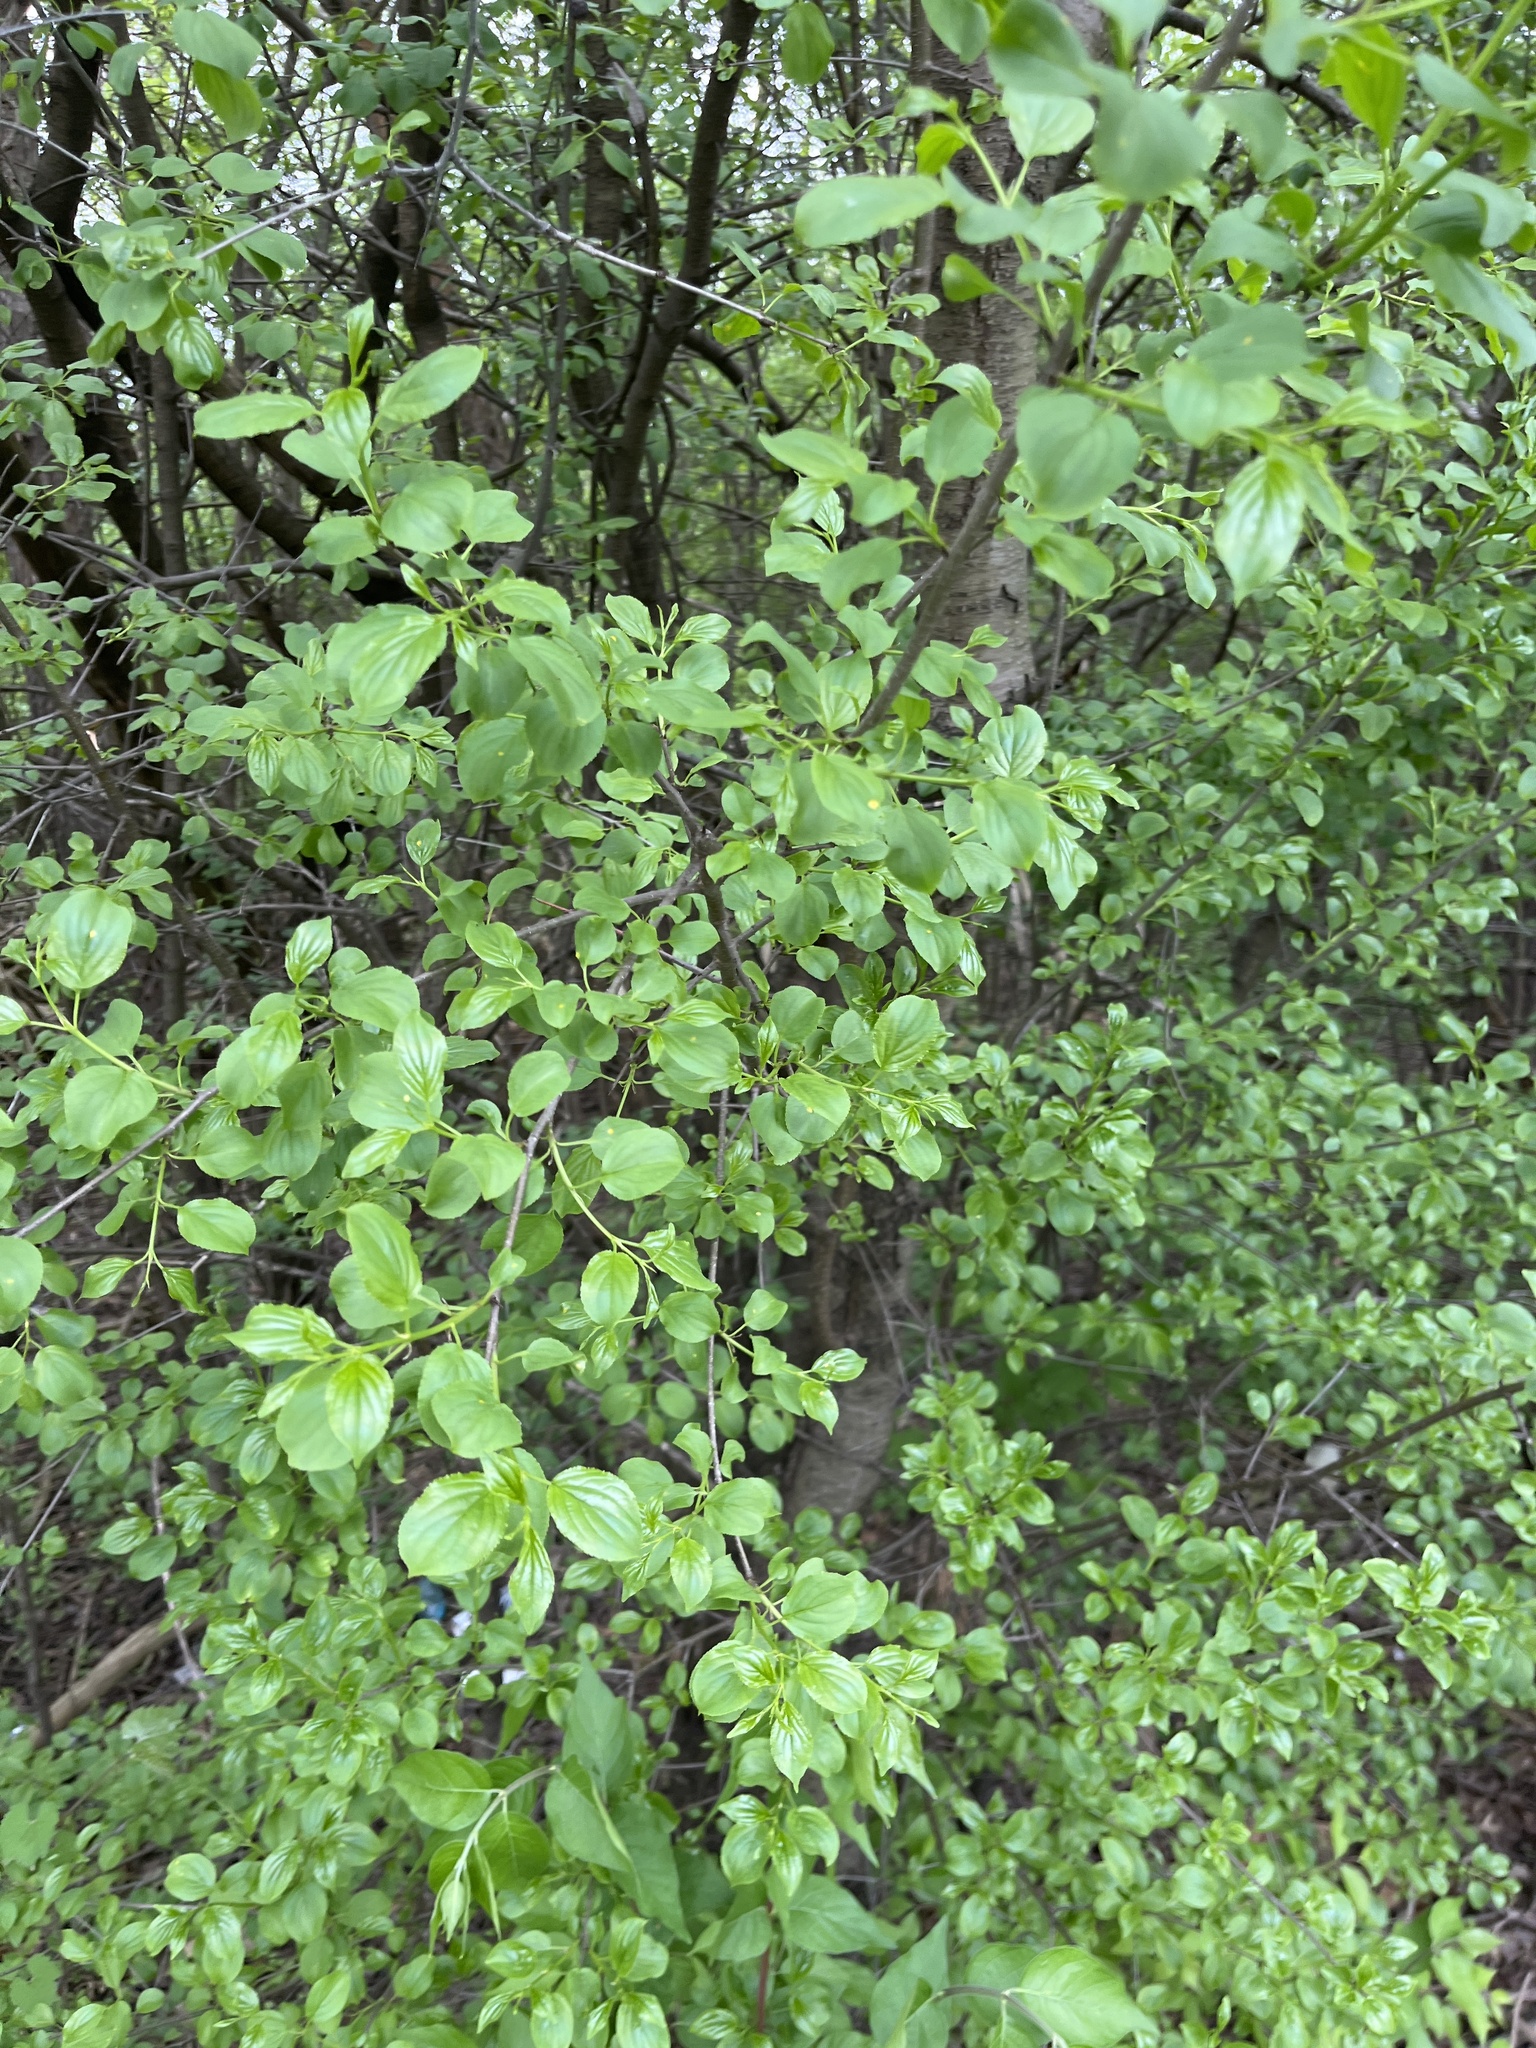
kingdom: Plantae
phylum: Tracheophyta
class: Magnoliopsida
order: Rosales
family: Rhamnaceae
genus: Rhamnus
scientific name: Rhamnus cathartica
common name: Common buckthorn
